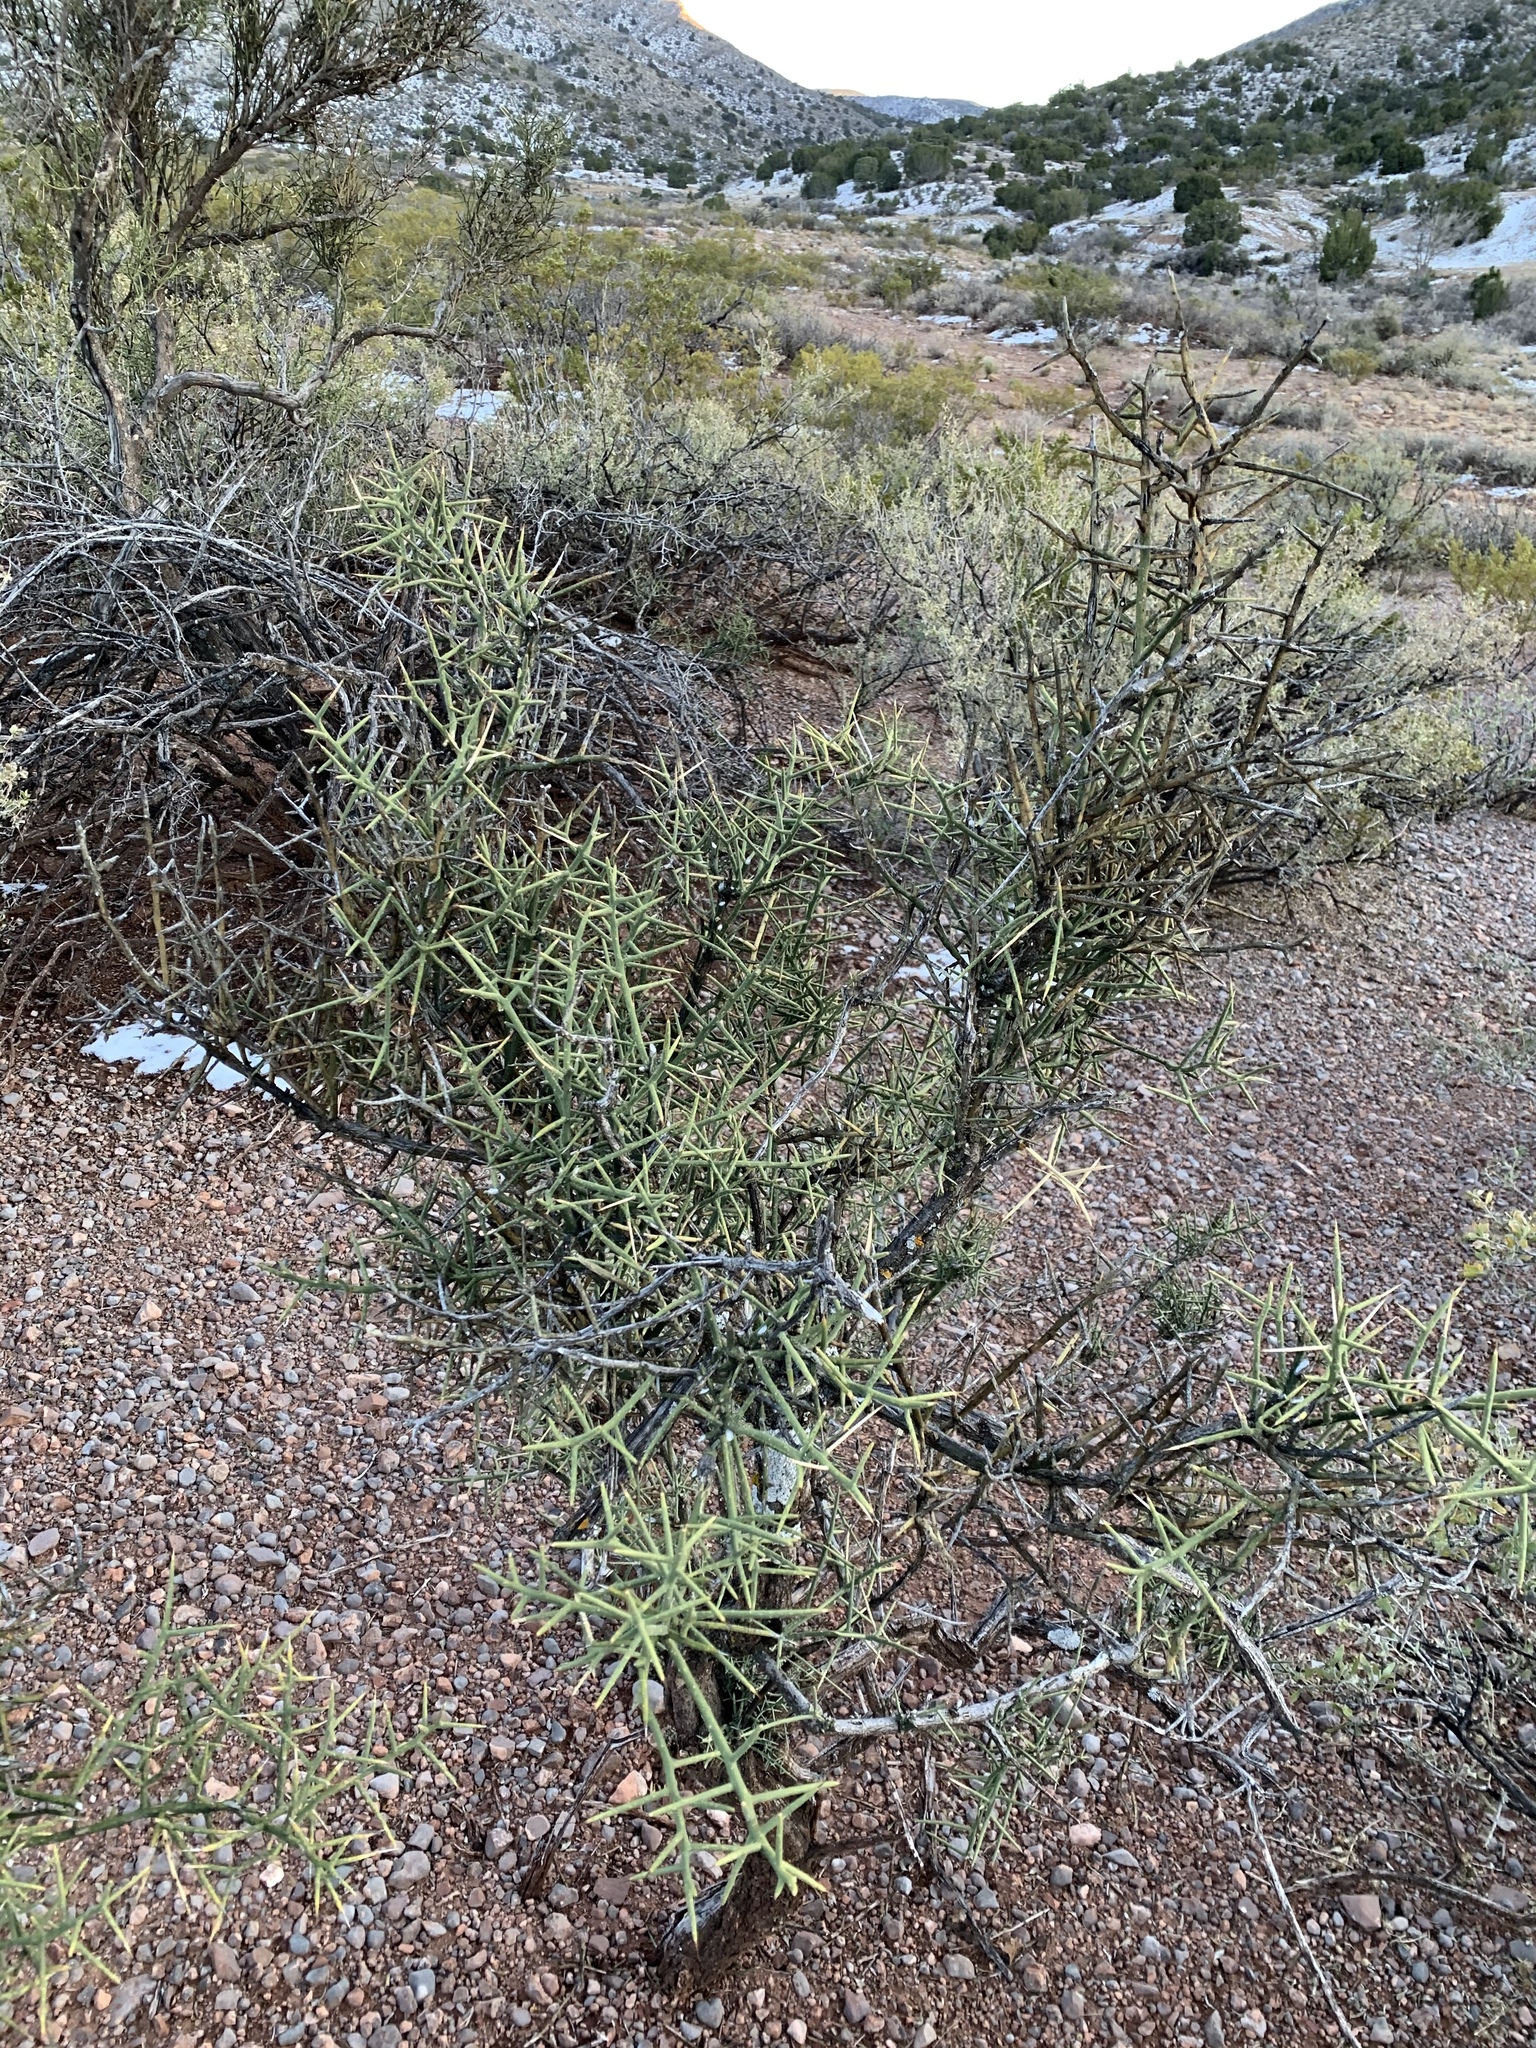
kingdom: Plantae
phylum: Tracheophyta
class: Magnoliopsida
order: Brassicales
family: Koeberliniaceae
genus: Koeberlinia
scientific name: Koeberlinia spinosa
